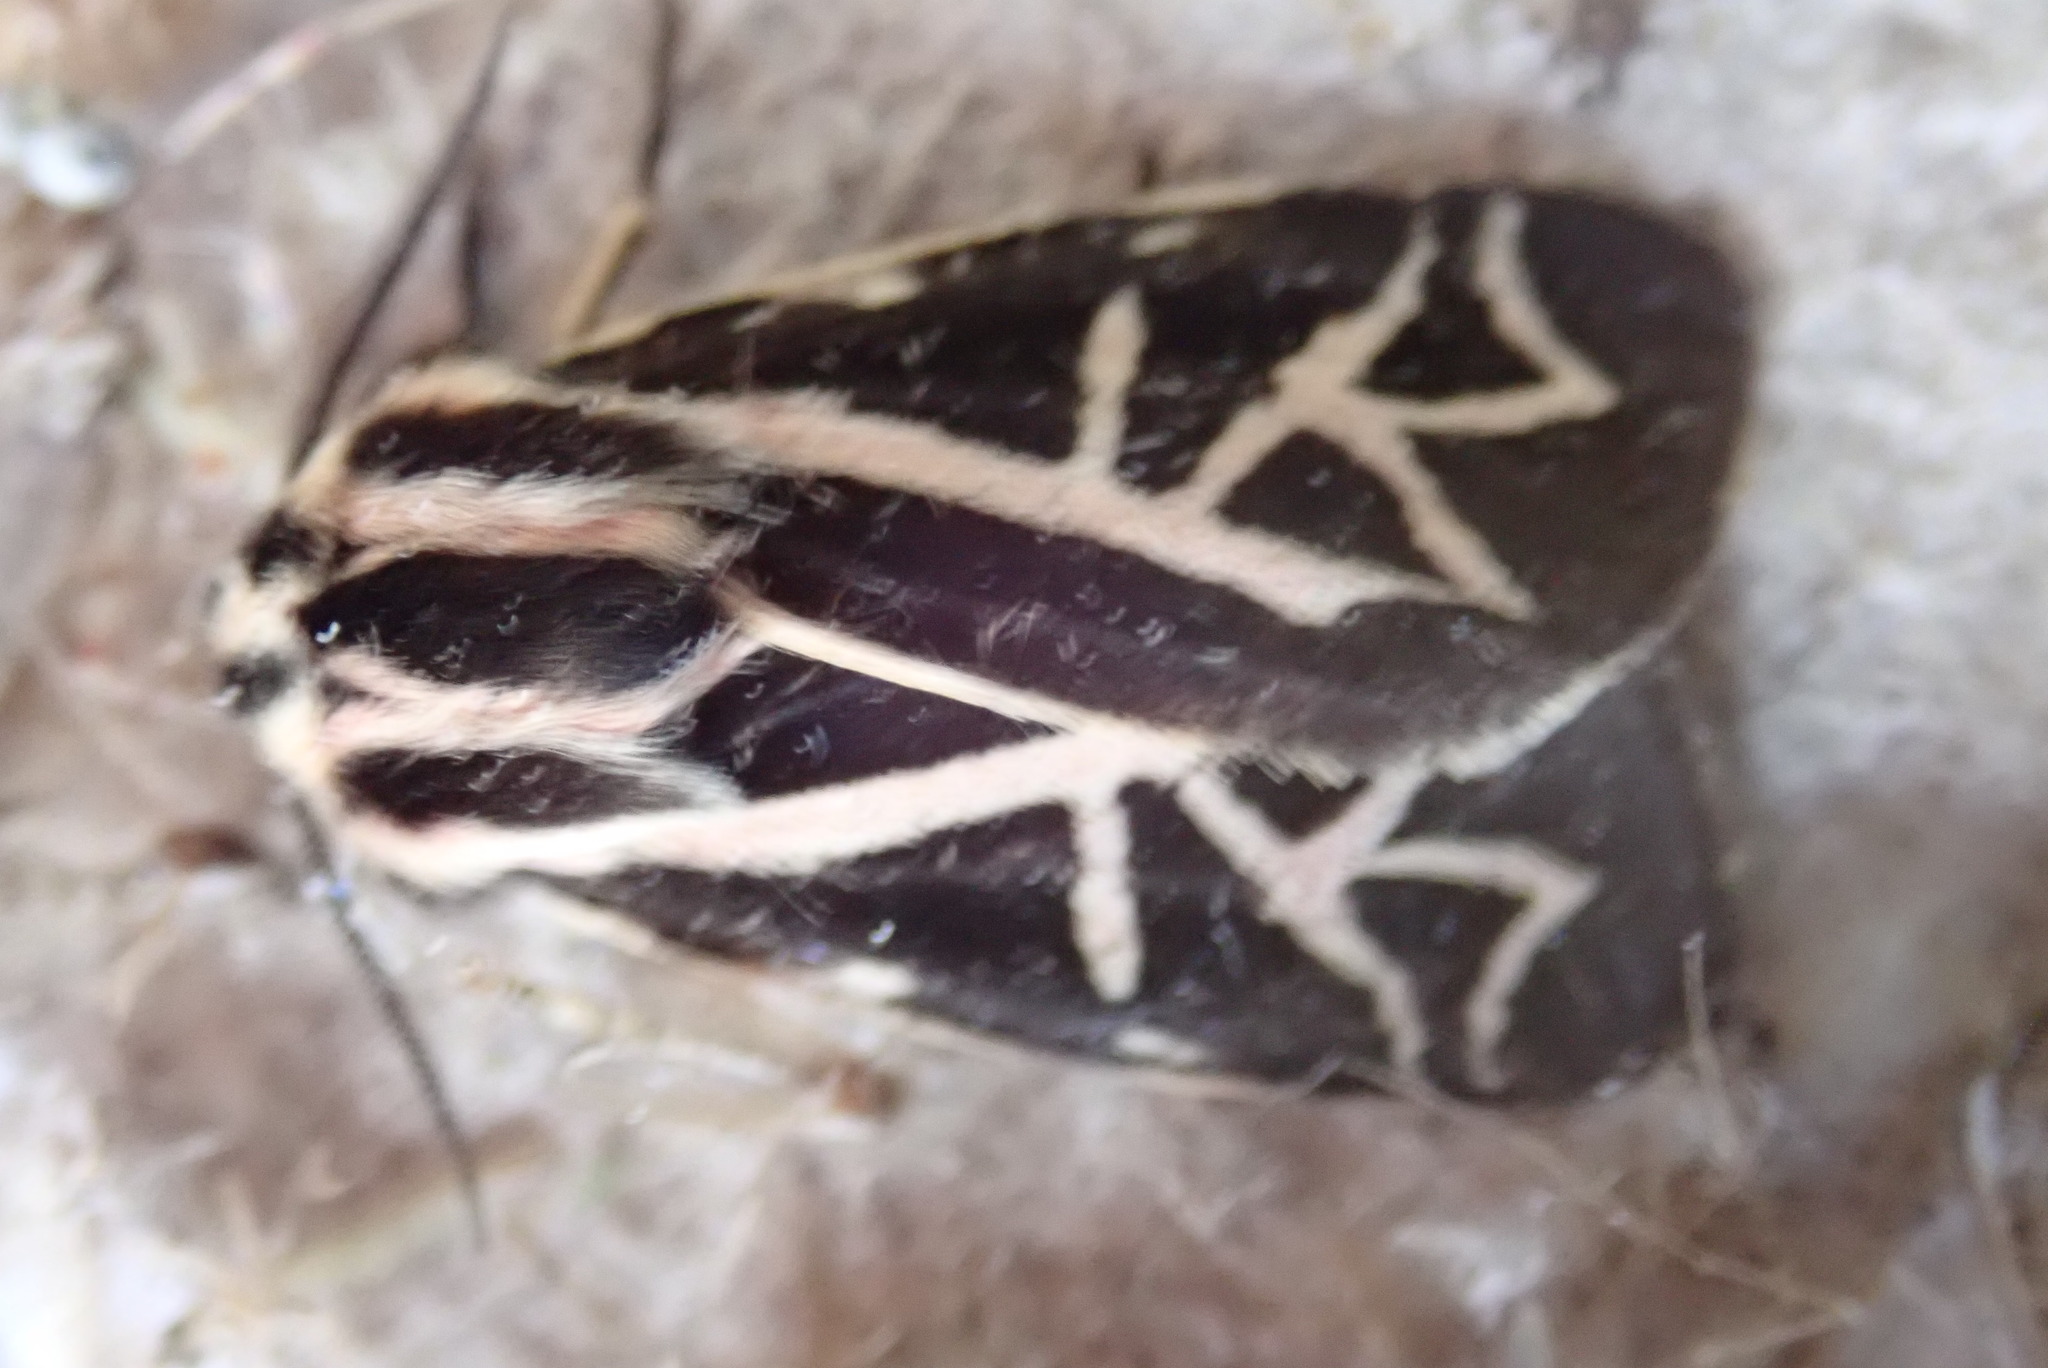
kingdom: Animalia
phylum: Arthropoda
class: Insecta
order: Lepidoptera
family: Erebidae
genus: Apantesis
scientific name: Apantesis
